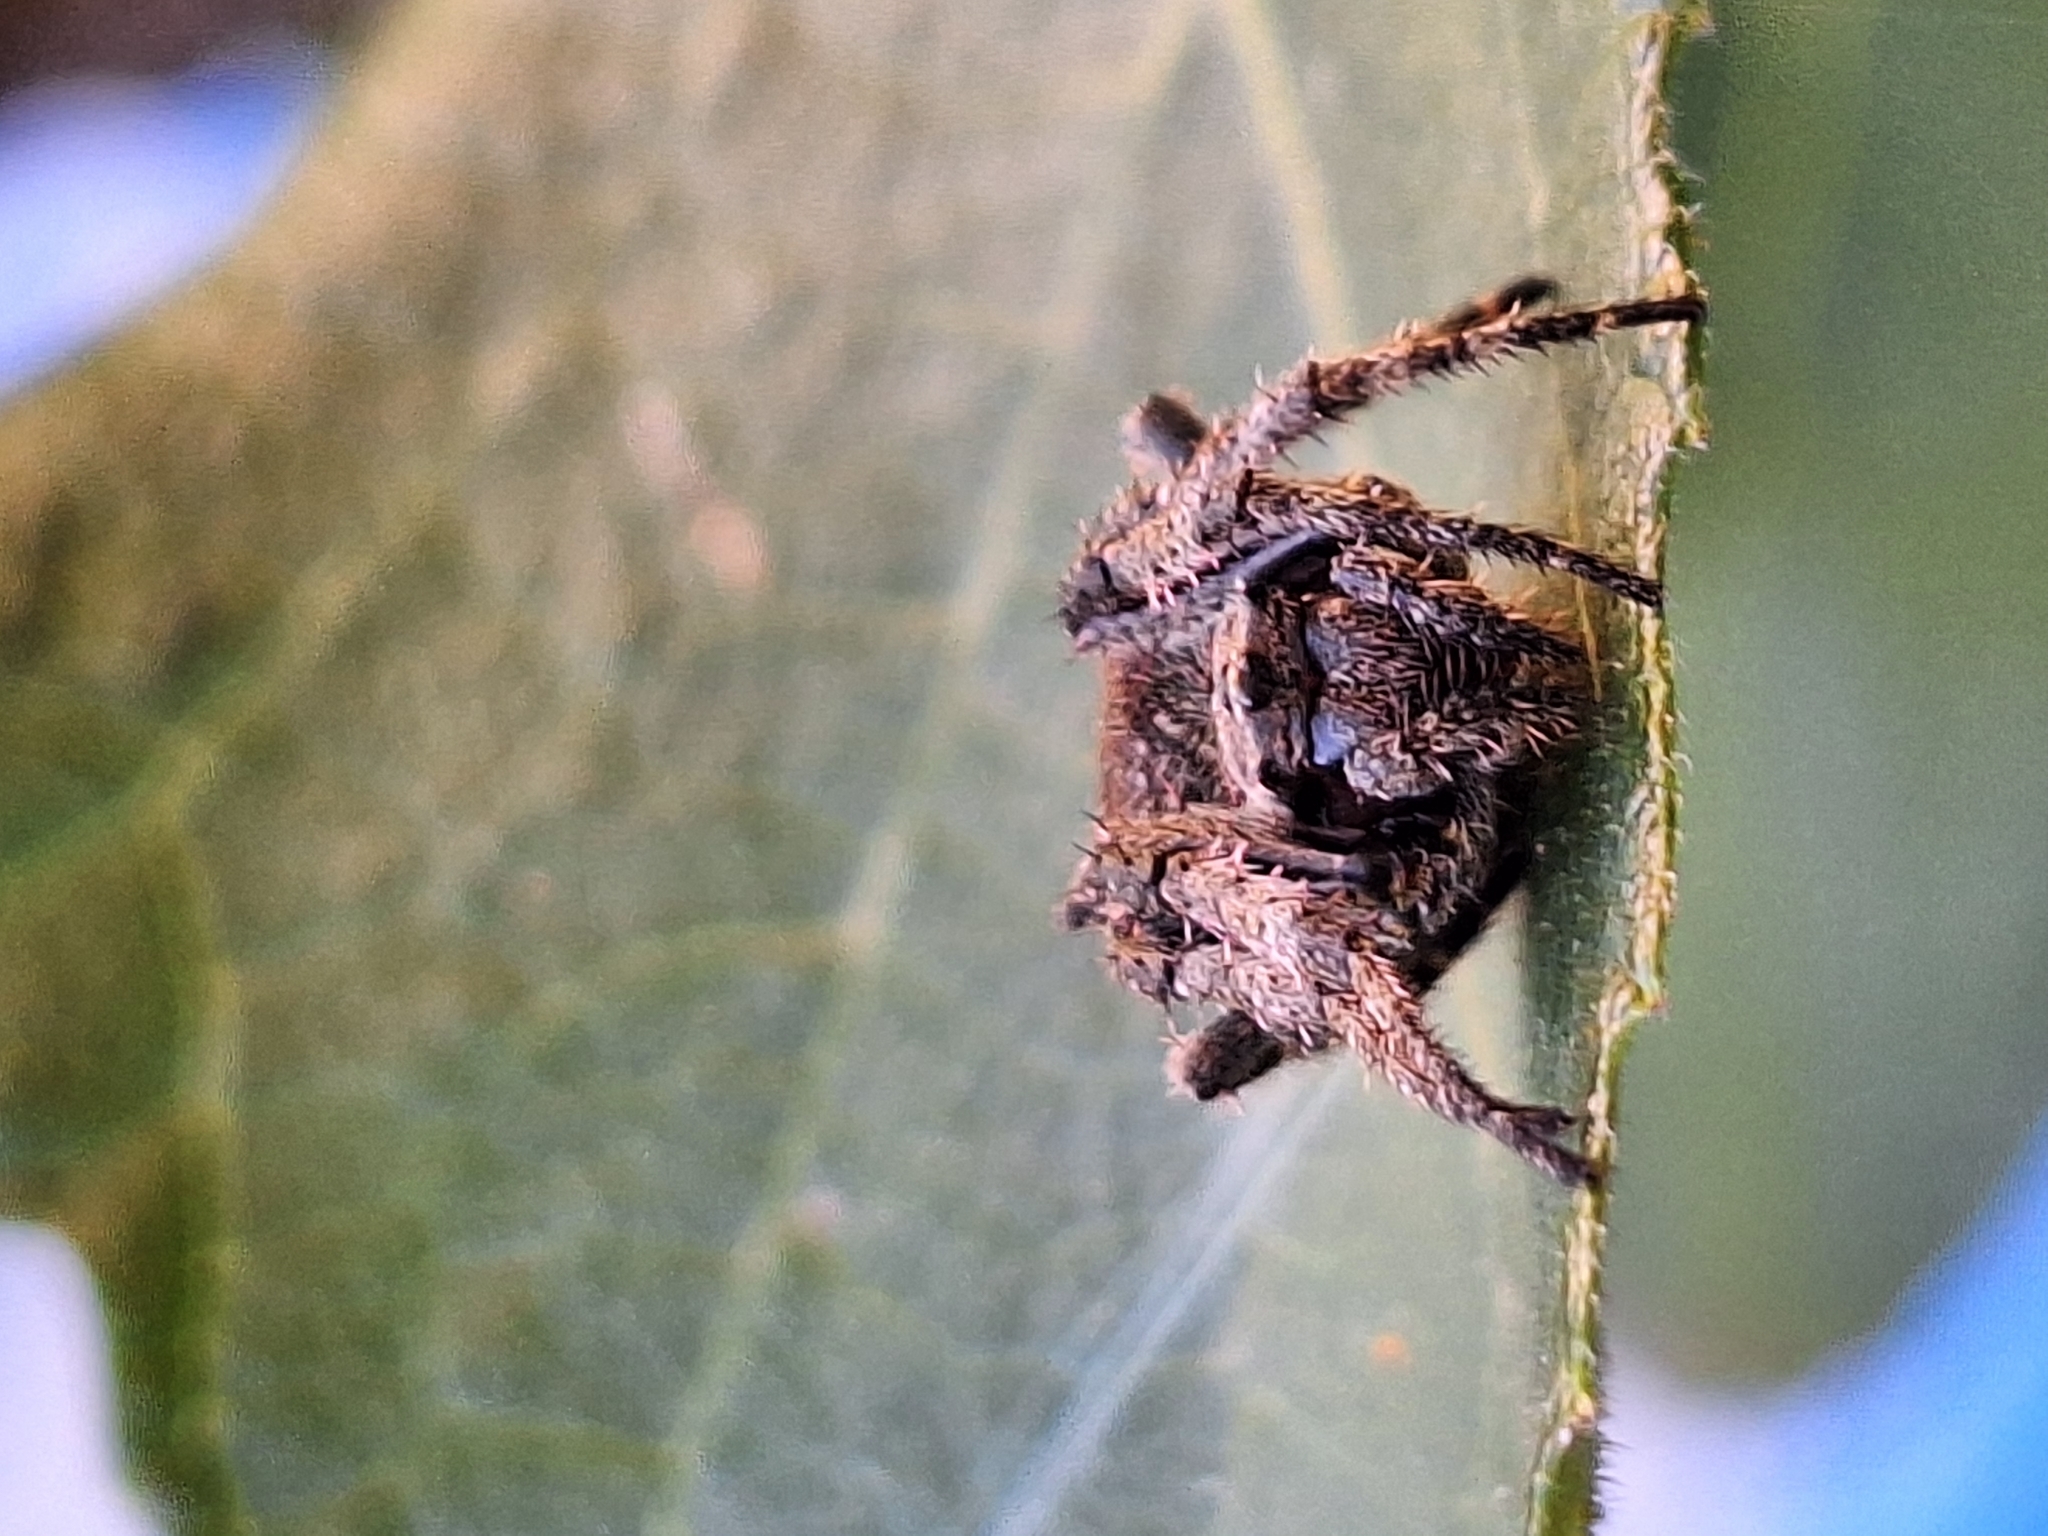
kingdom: Animalia
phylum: Arthropoda
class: Arachnida
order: Araneae
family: Araneidae
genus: Parawixia
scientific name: Parawixia audax
